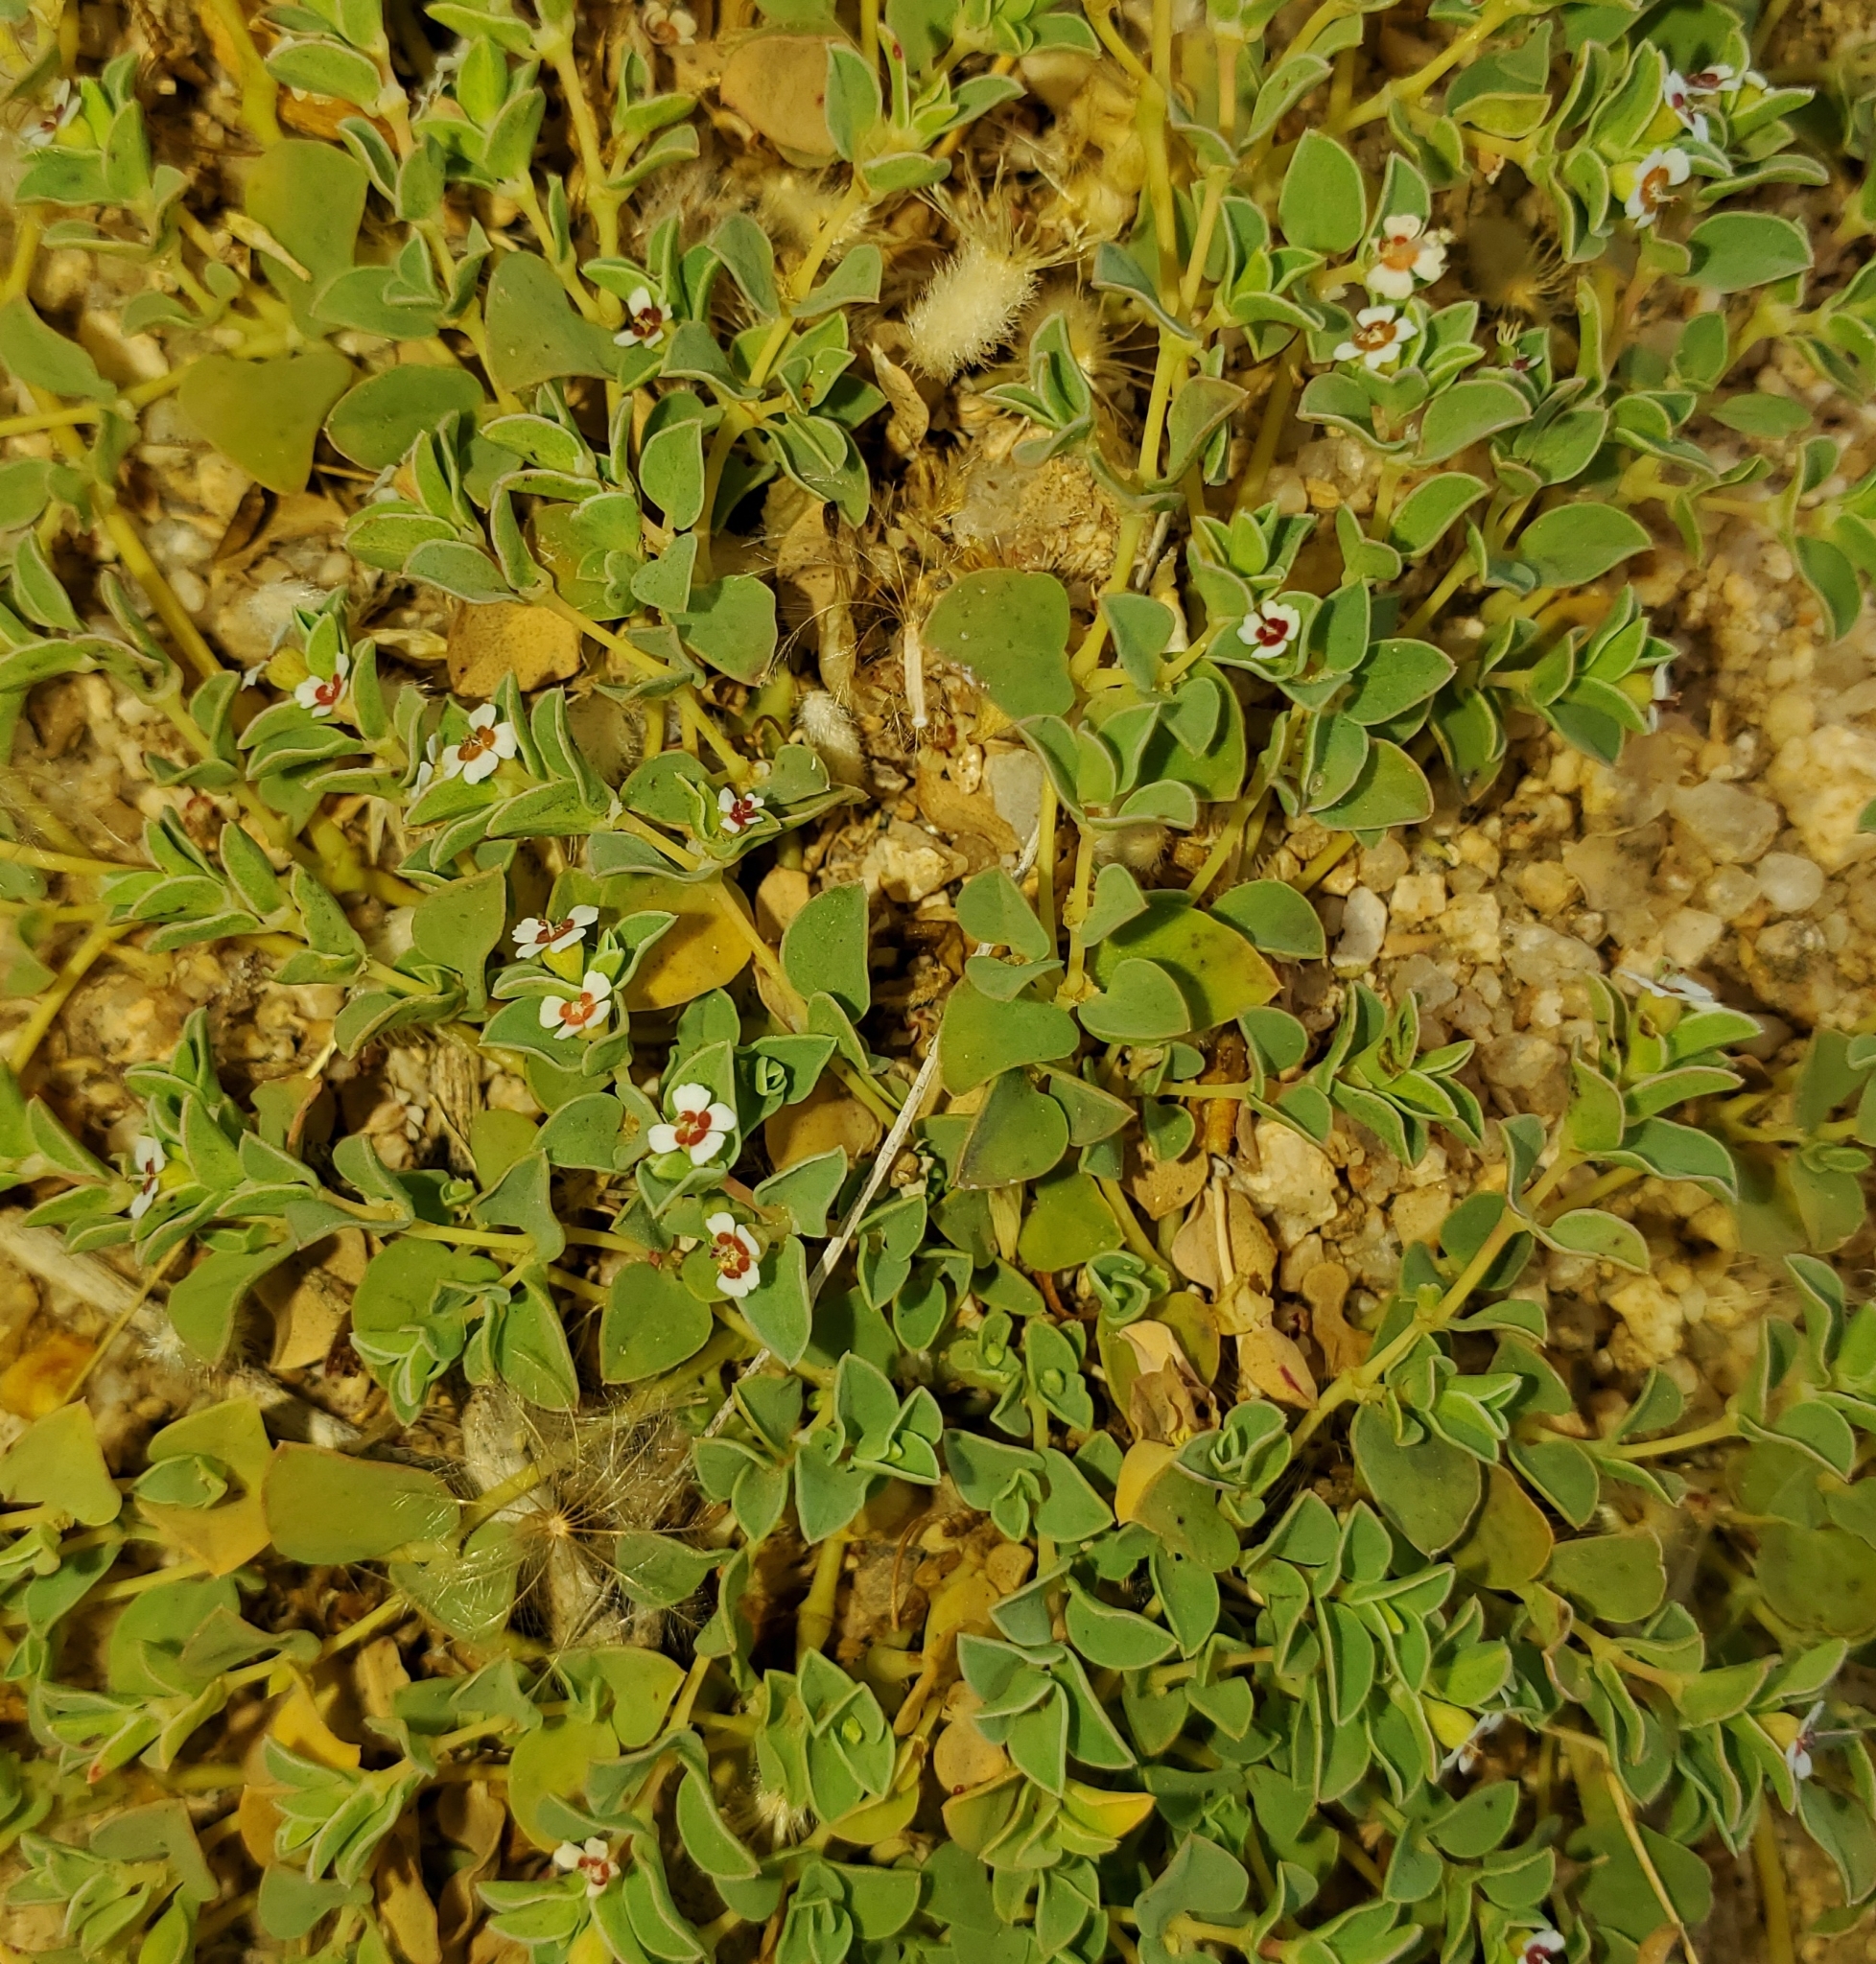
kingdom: Plantae
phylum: Tracheophyta
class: Magnoliopsida
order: Malpighiales
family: Euphorbiaceae
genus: Euphorbia
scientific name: Euphorbia albomarginata
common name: Whitemargin sandmat
